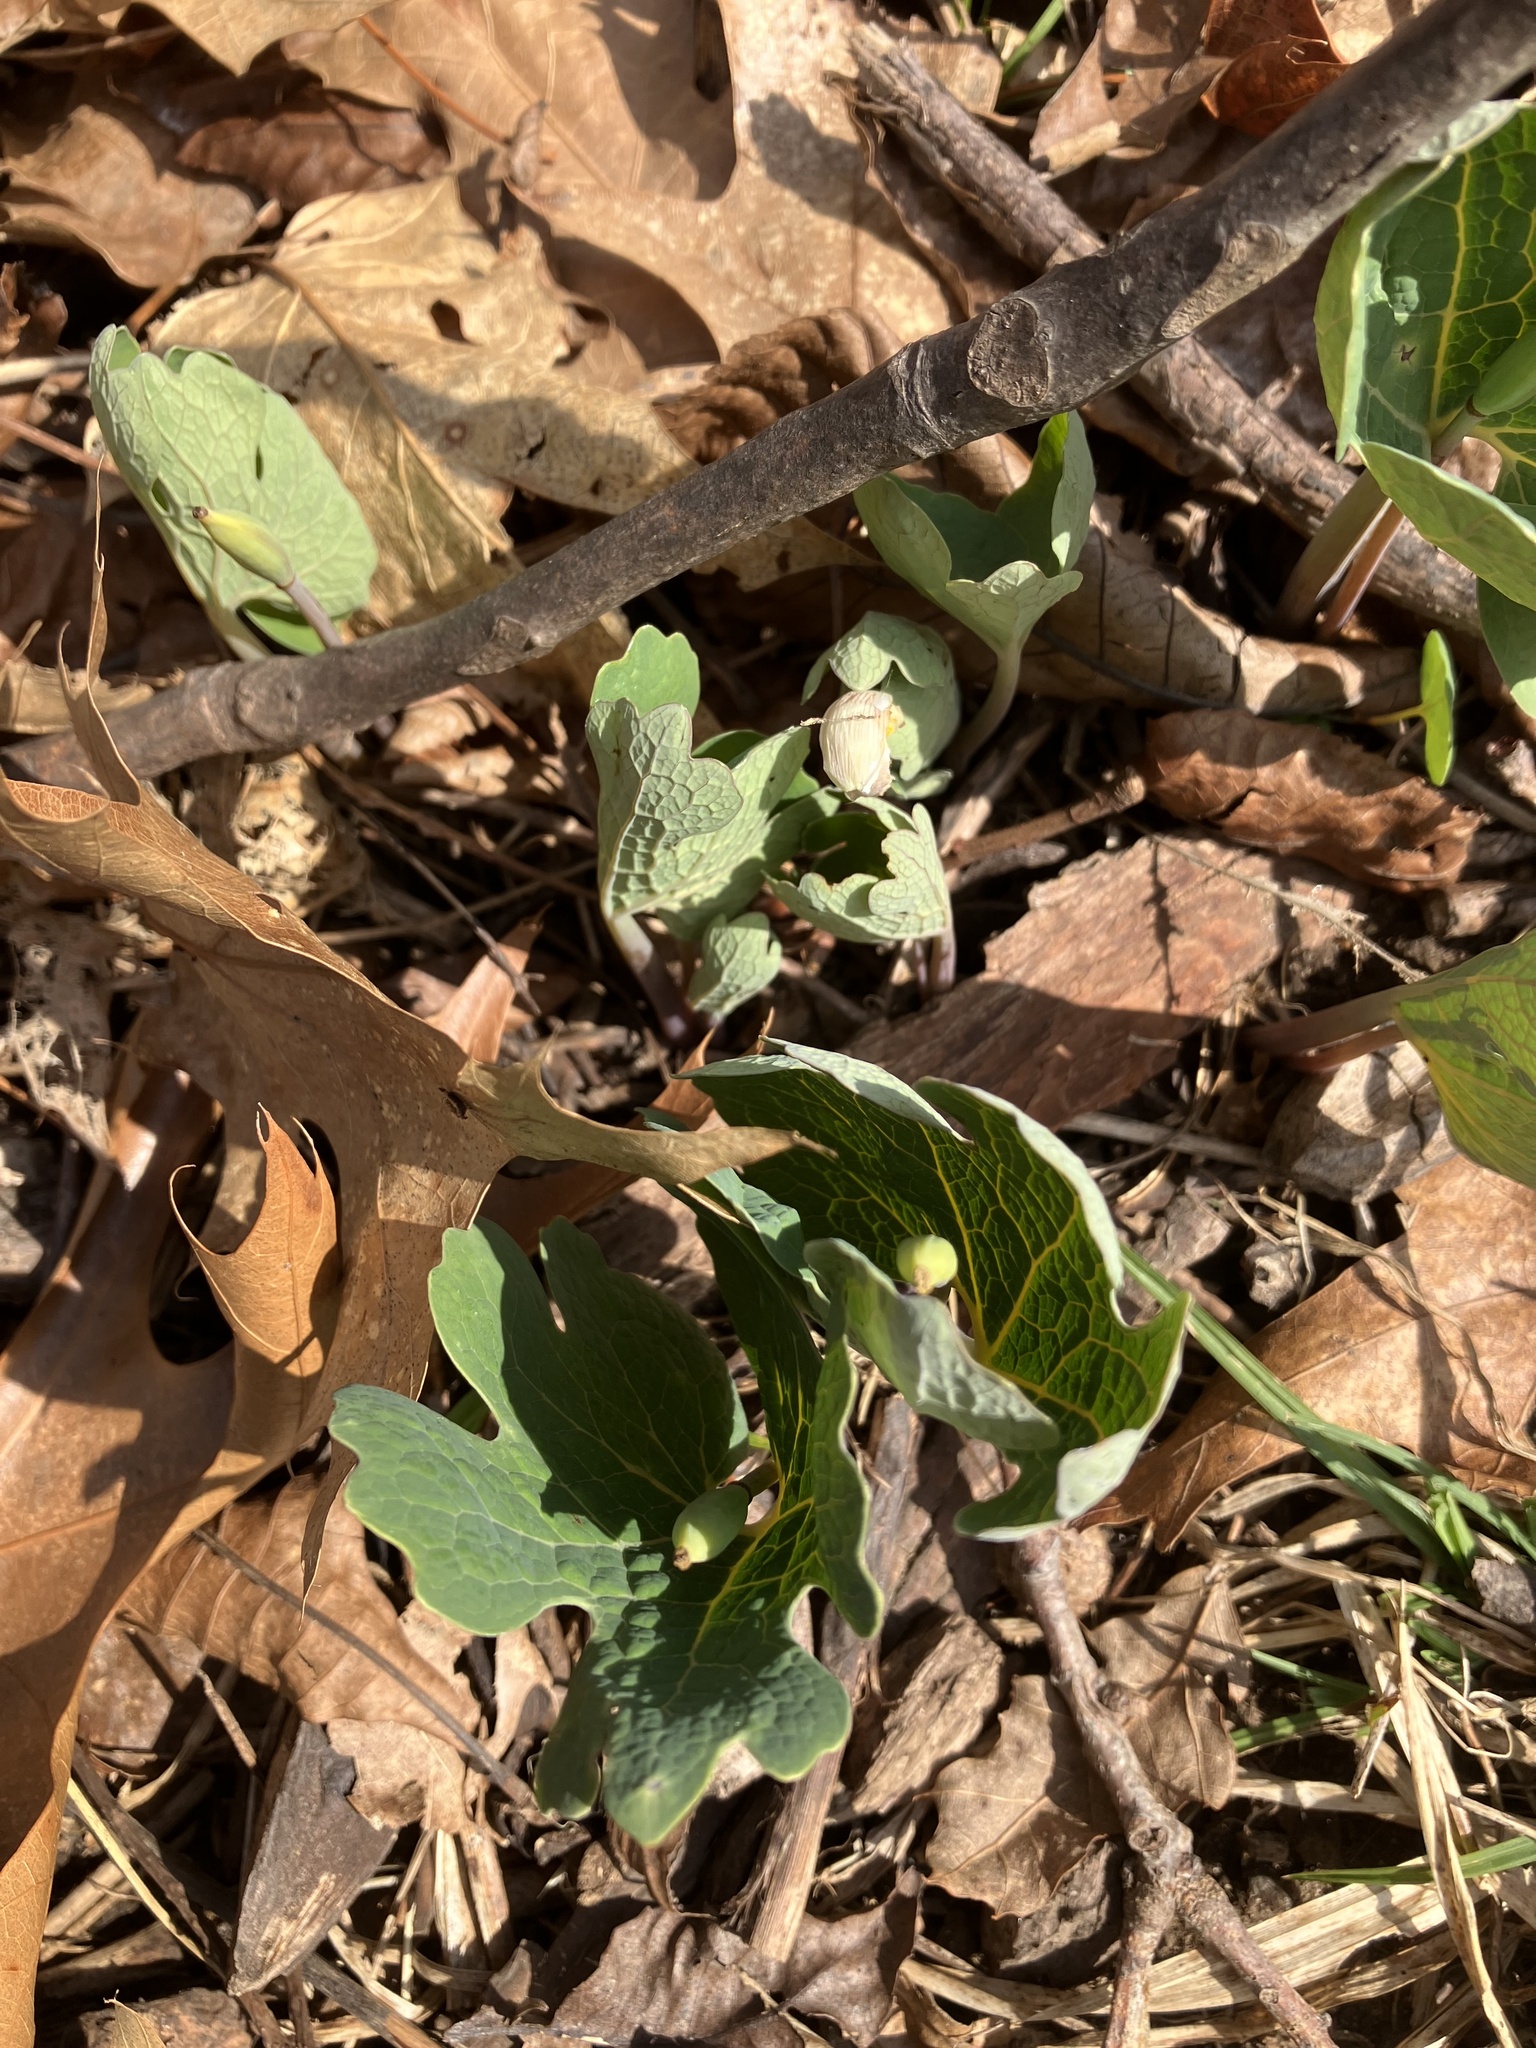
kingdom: Plantae
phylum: Tracheophyta
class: Magnoliopsida
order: Ranunculales
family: Papaveraceae
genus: Sanguinaria
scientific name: Sanguinaria canadensis
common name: Bloodroot
